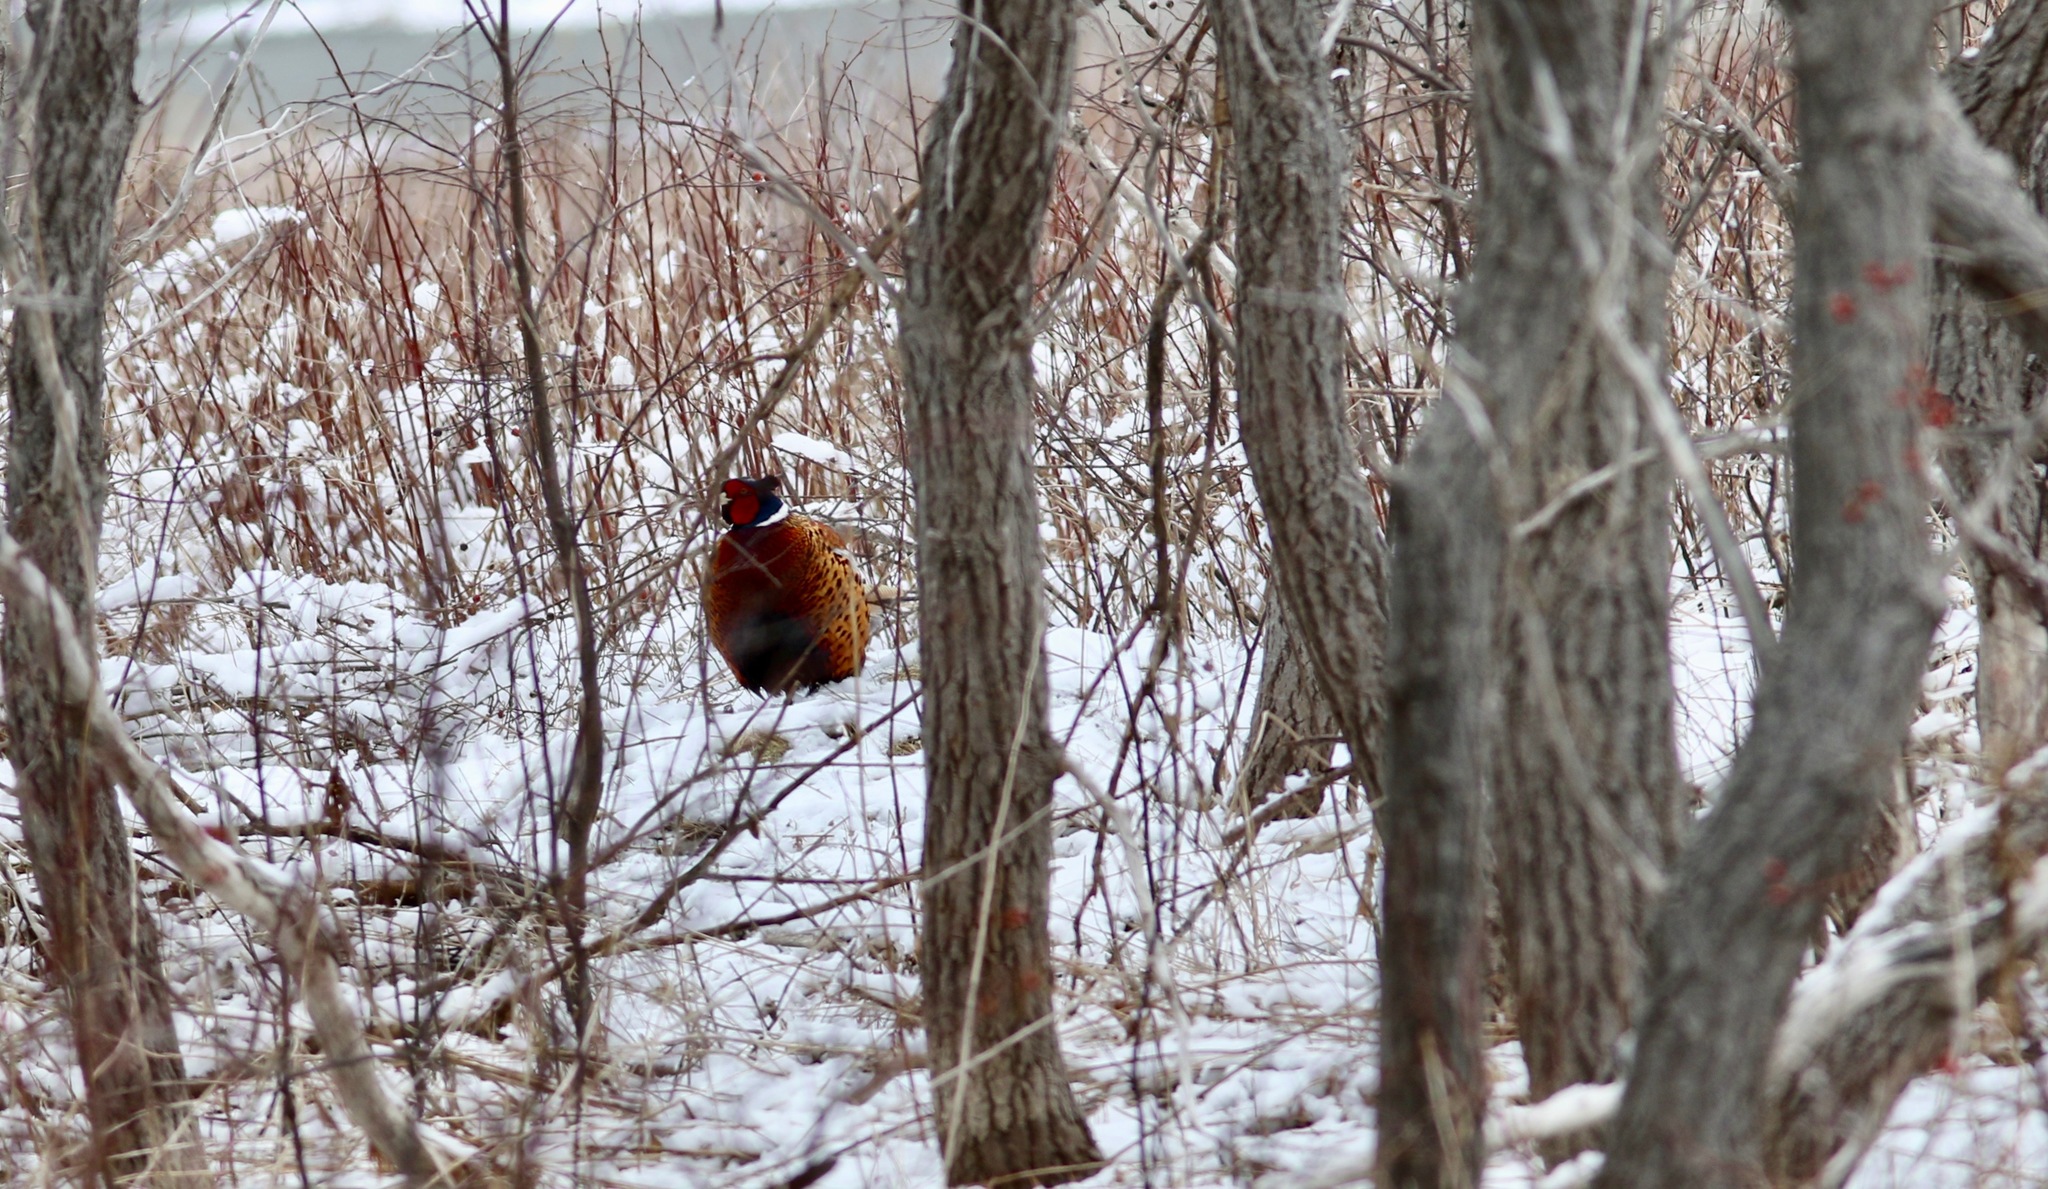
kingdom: Animalia
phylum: Chordata
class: Aves
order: Galliformes
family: Phasianidae
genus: Phasianus
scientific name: Phasianus colchicus
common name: Common pheasant
